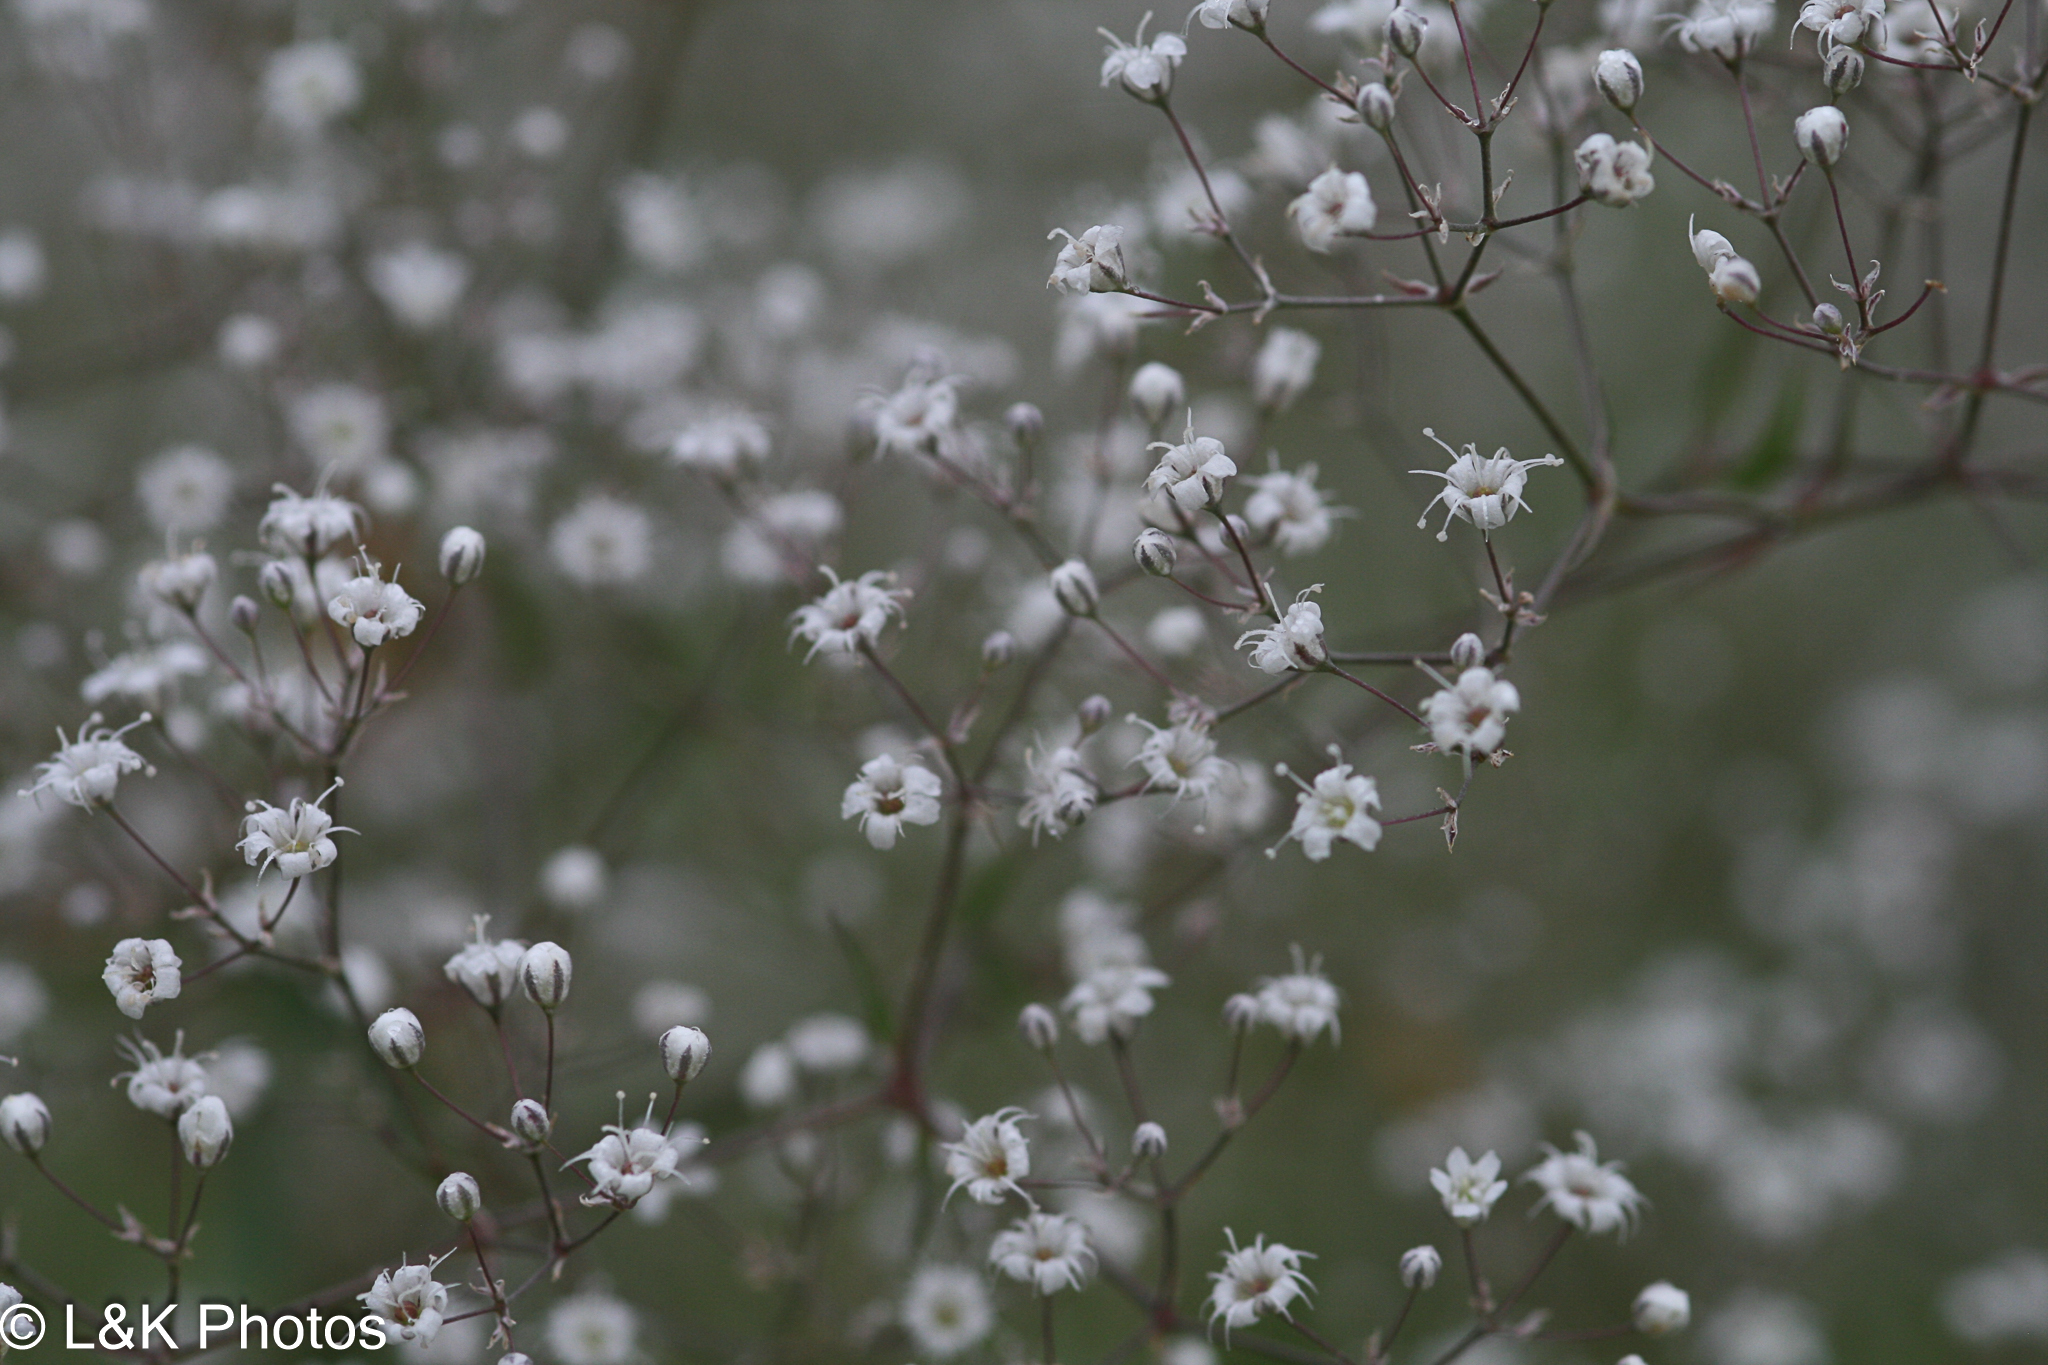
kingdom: Plantae
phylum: Tracheophyta
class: Magnoliopsida
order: Caryophyllales
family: Caryophyllaceae
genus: Gypsophila
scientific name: Gypsophila paniculata
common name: Baby's-breath
